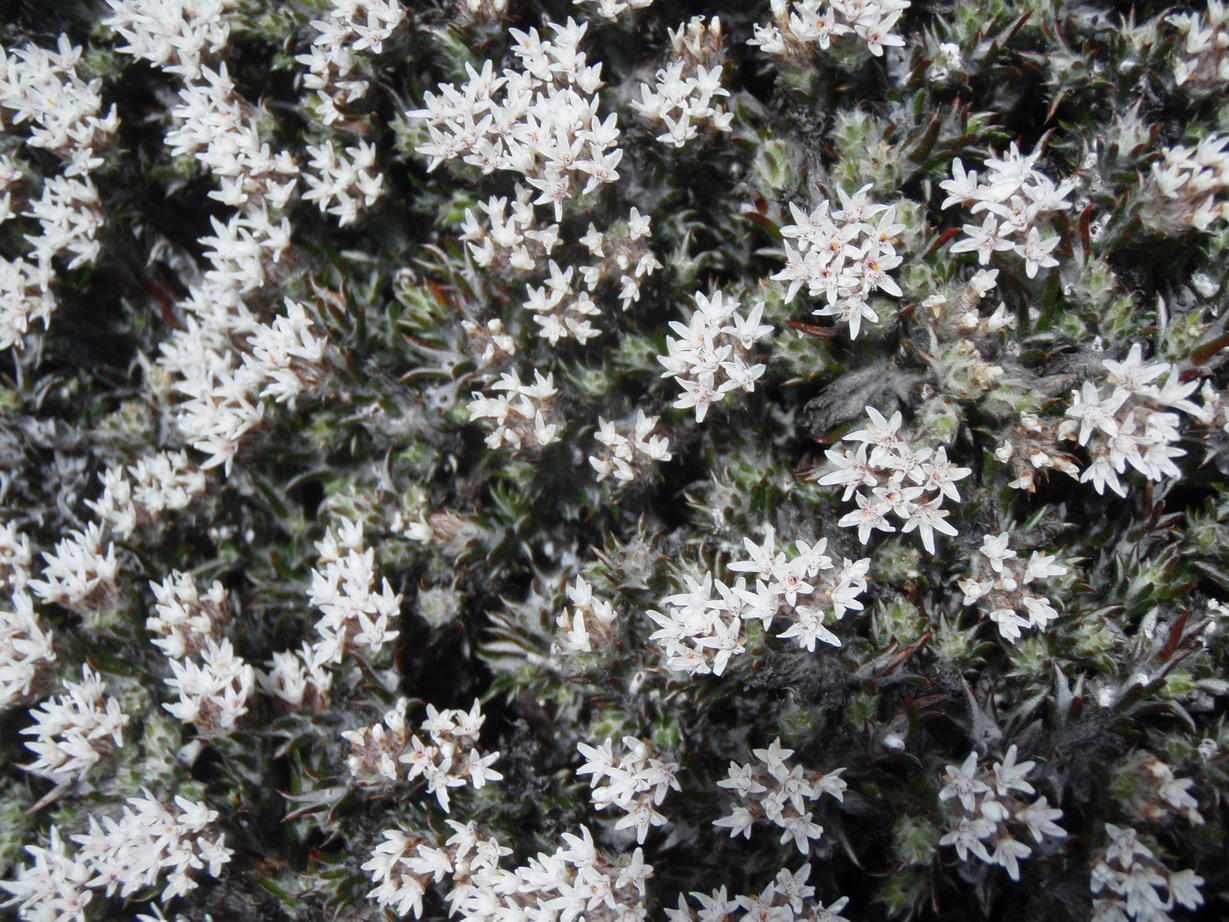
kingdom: Plantae
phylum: Tracheophyta
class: Magnoliopsida
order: Asterales
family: Asteraceae
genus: Metalasia
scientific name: Metalasia strictifolia
